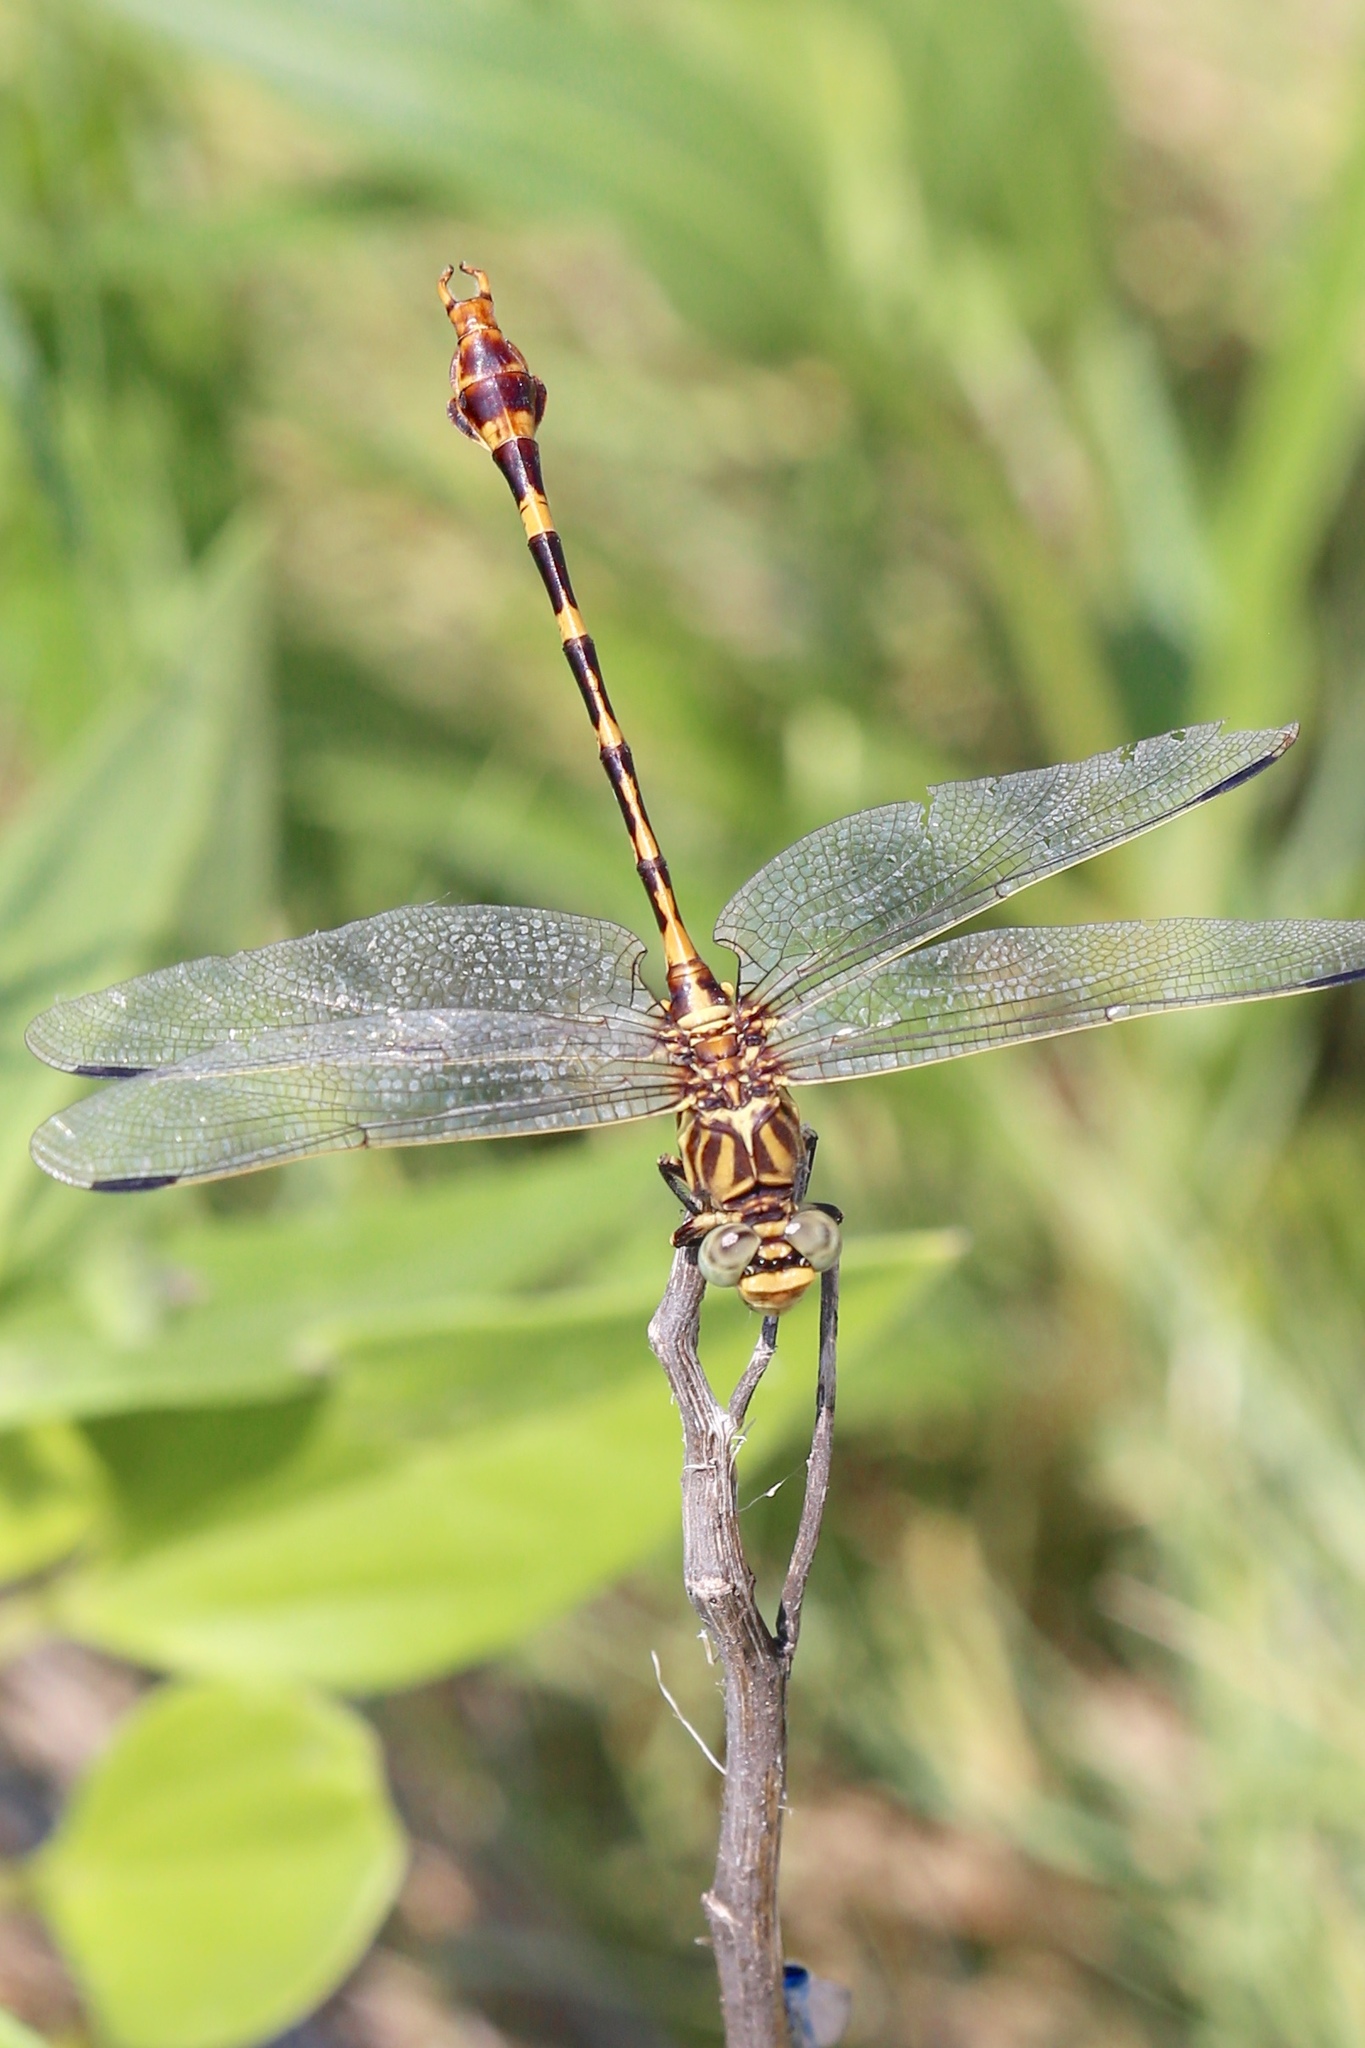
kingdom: Animalia
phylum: Arthropoda
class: Insecta
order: Odonata
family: Gomphidae
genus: Phyllogomphoides
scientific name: Phyllogomphoides stigmatus
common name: Four-striped leaftail
